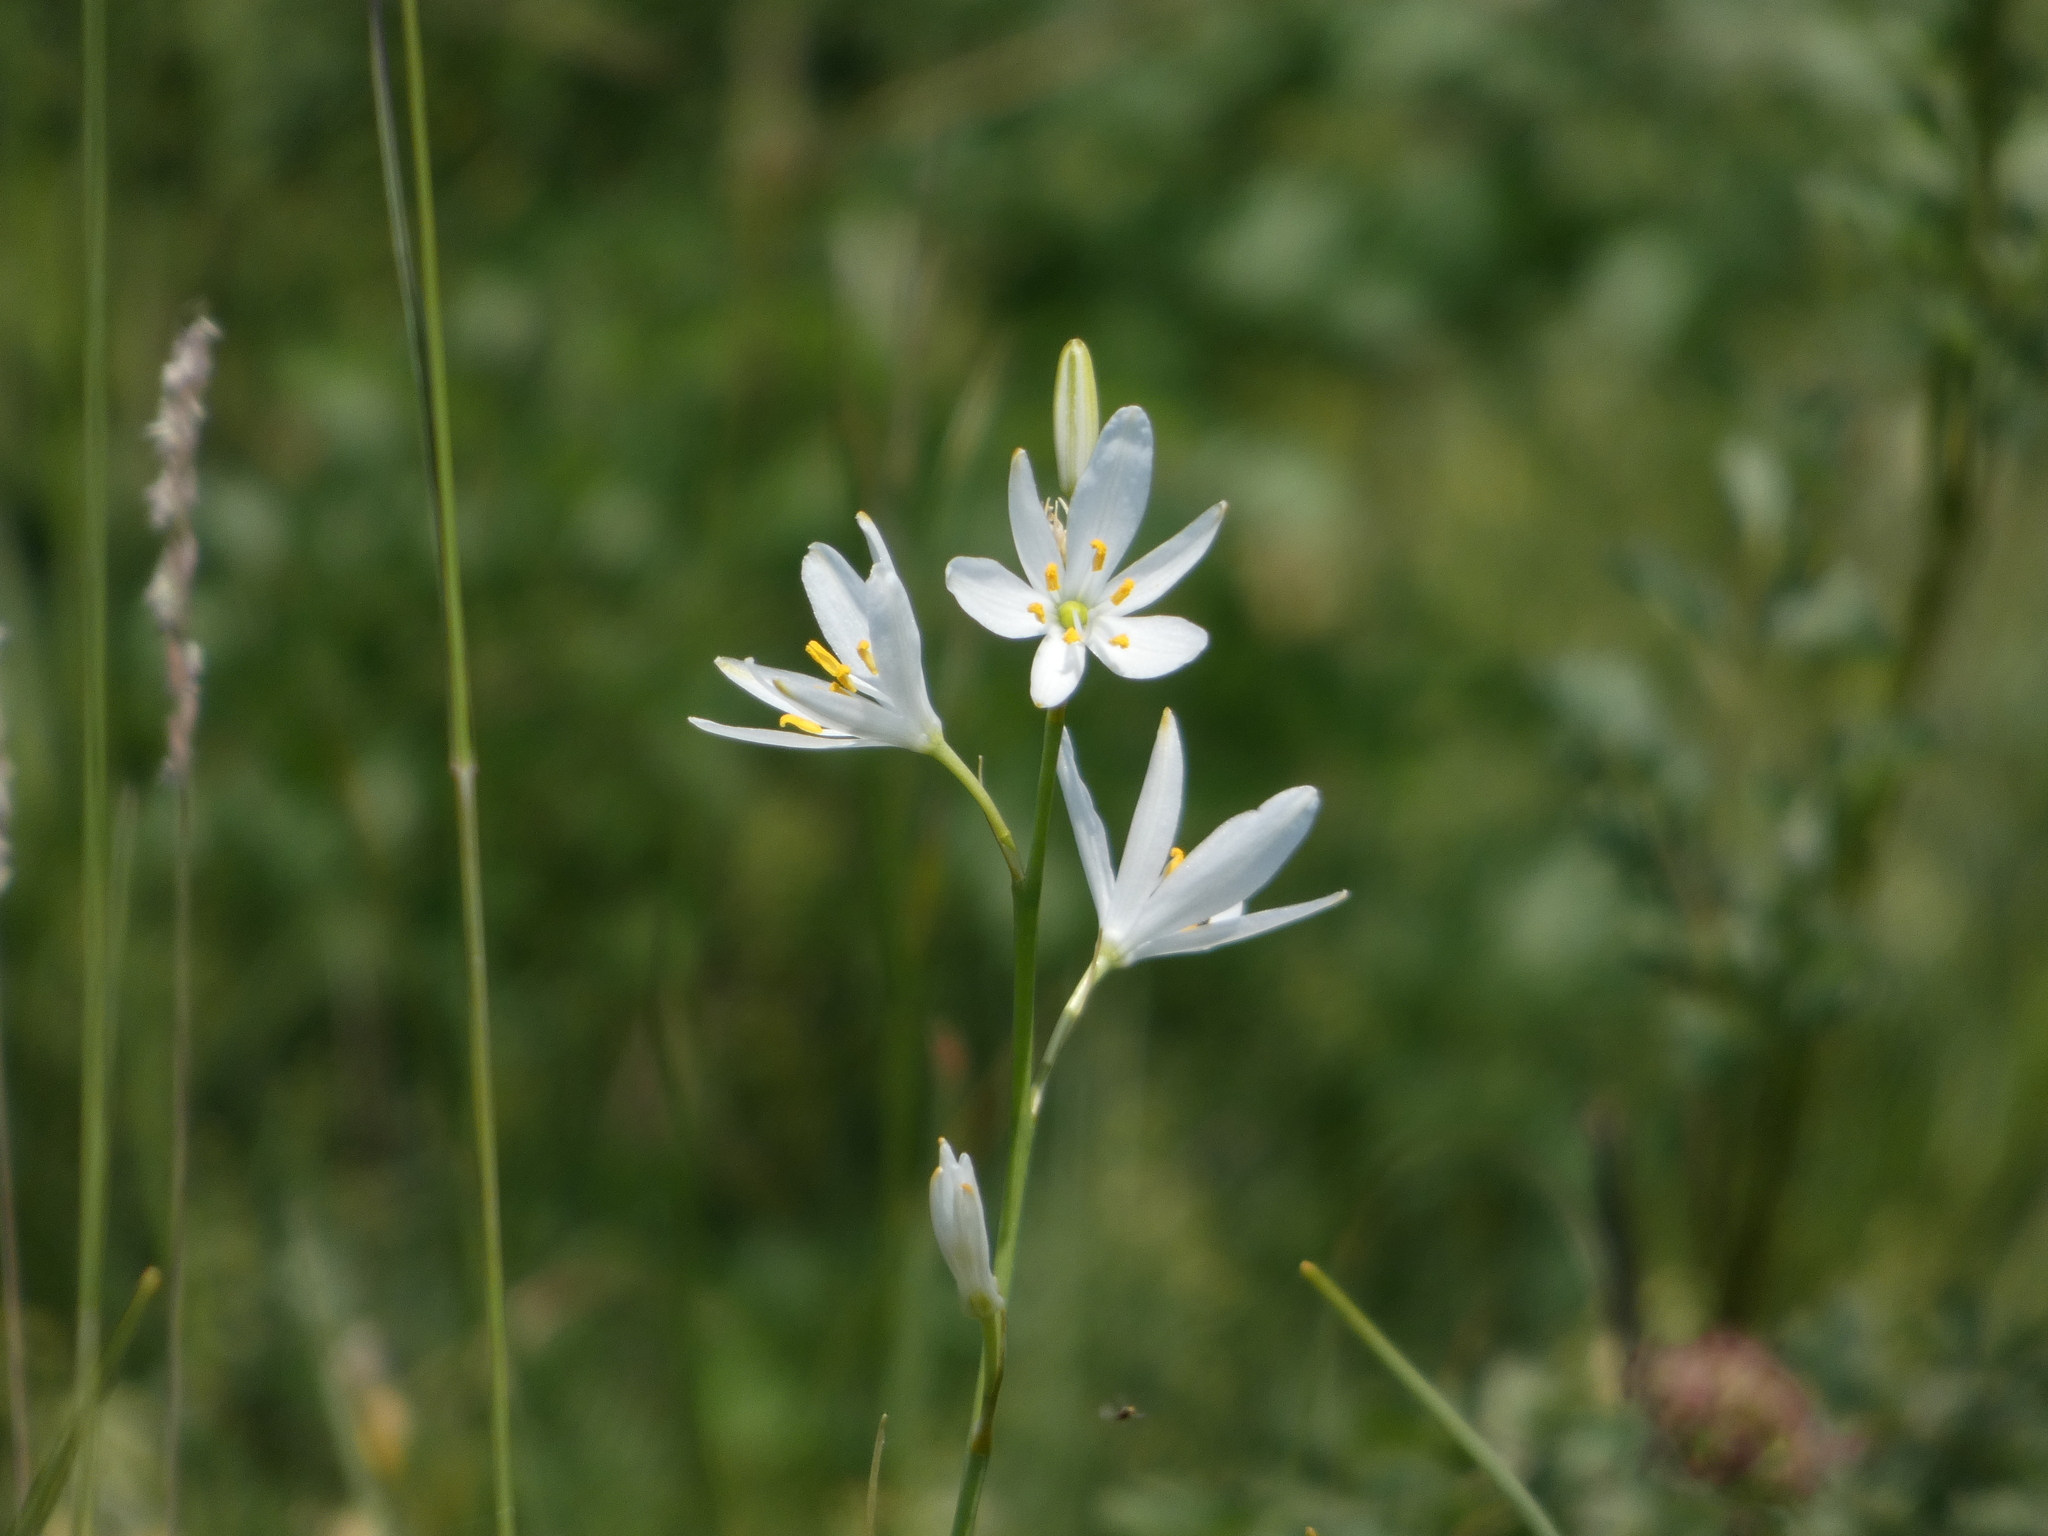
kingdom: Plantae
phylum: Tracheophyta
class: Liliopsida
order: Asparagales
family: Asparagaceae
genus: Anthericum
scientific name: Anthericum ramosum
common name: Branched st. bernard's-lily
